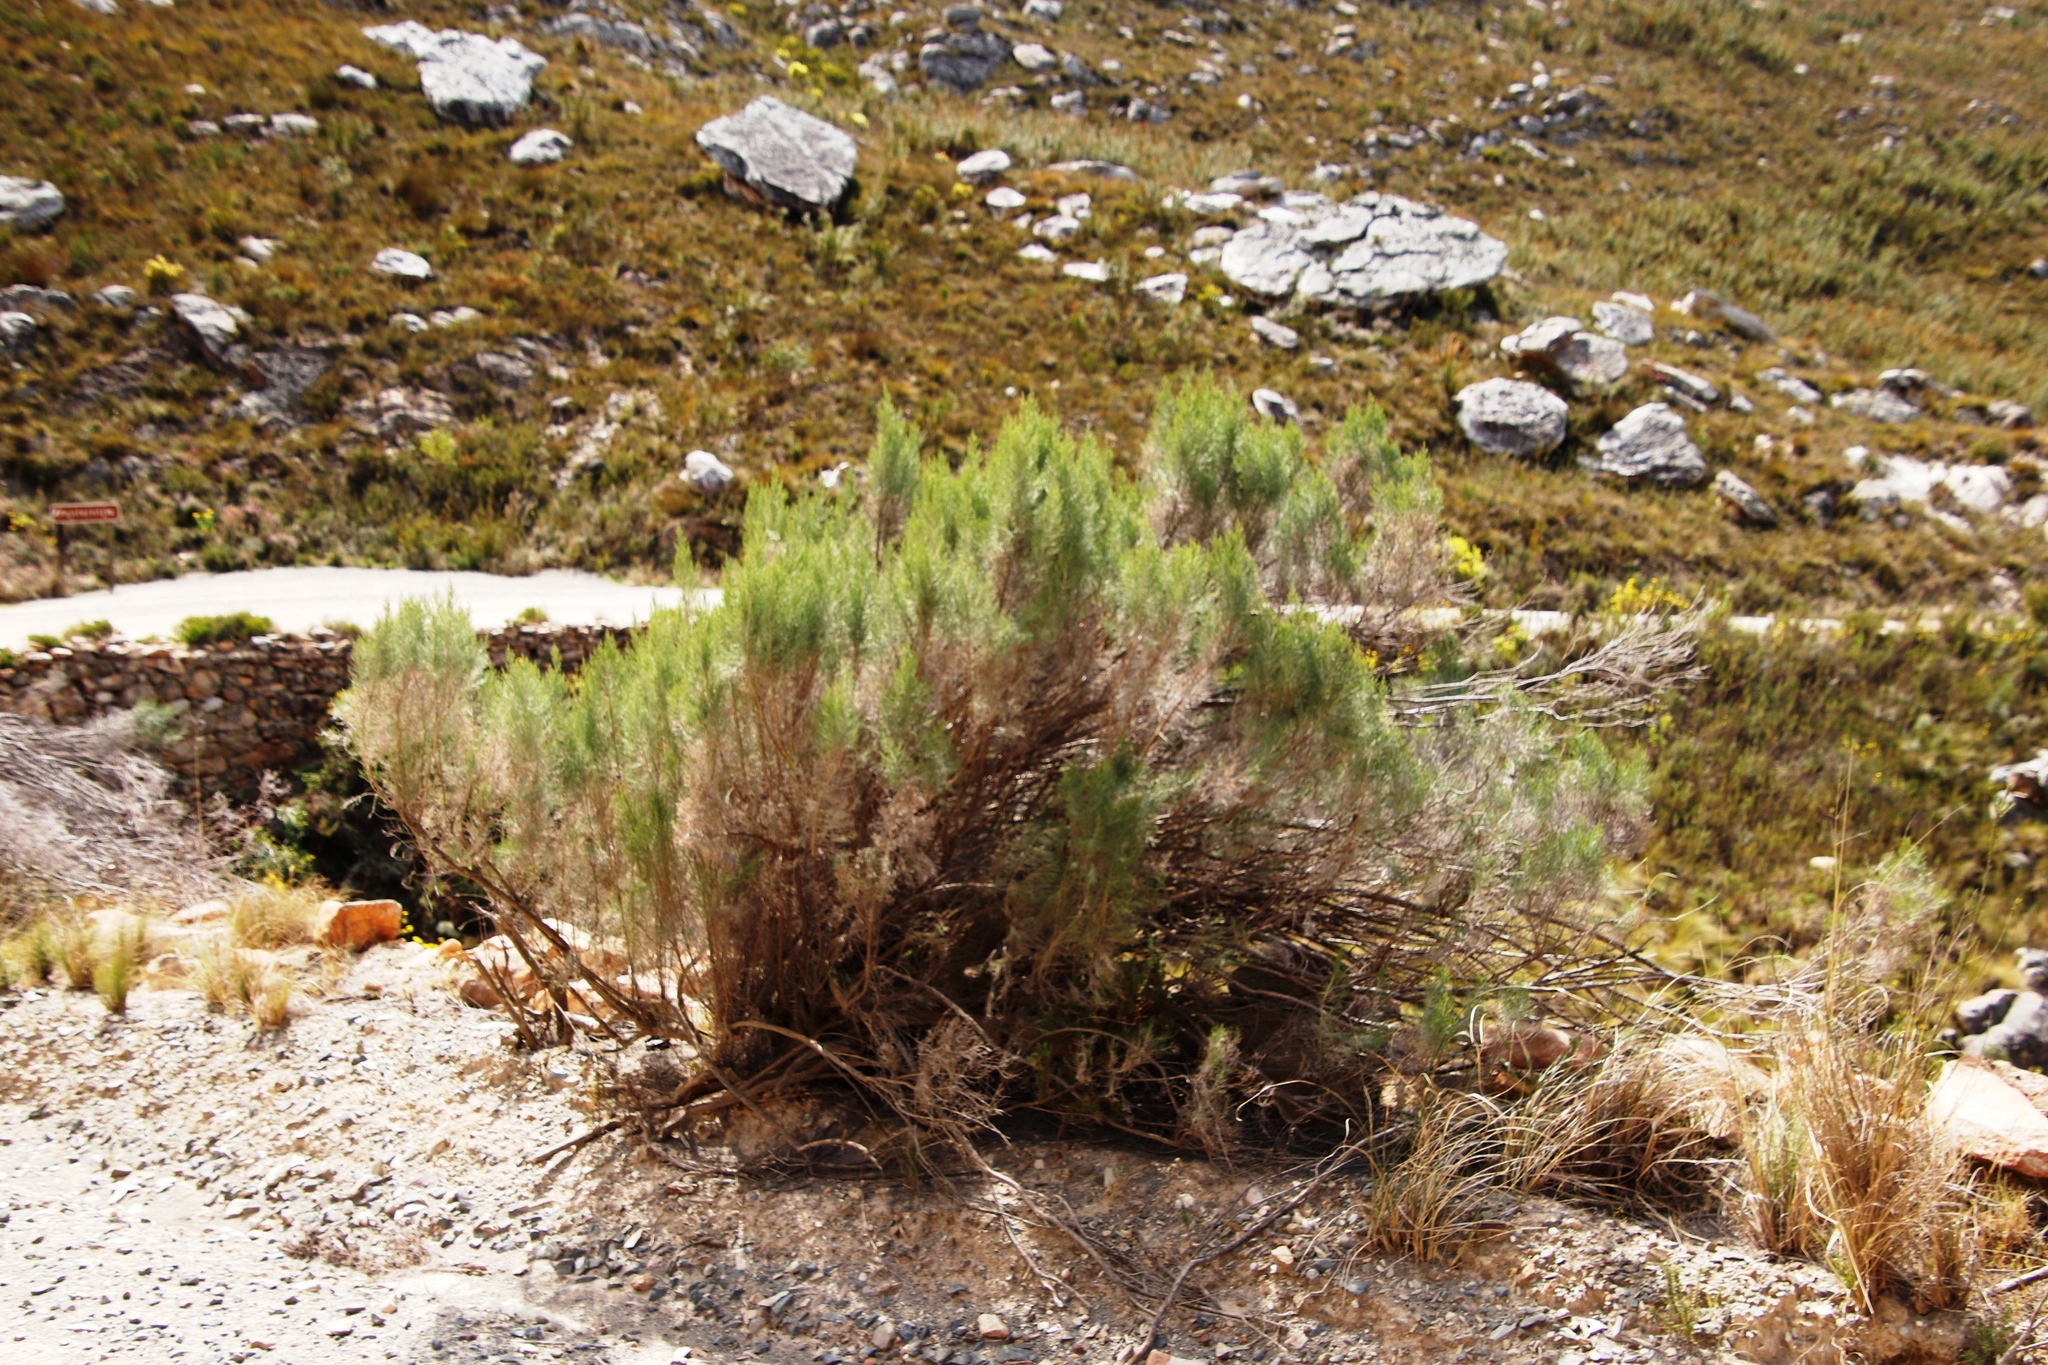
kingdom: Plantae
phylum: Tracheophyta
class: Magnoliopsida
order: Asterales
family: Asteraceae
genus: Dicerothamnus
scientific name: Dicerothamnus rhinocerotis
